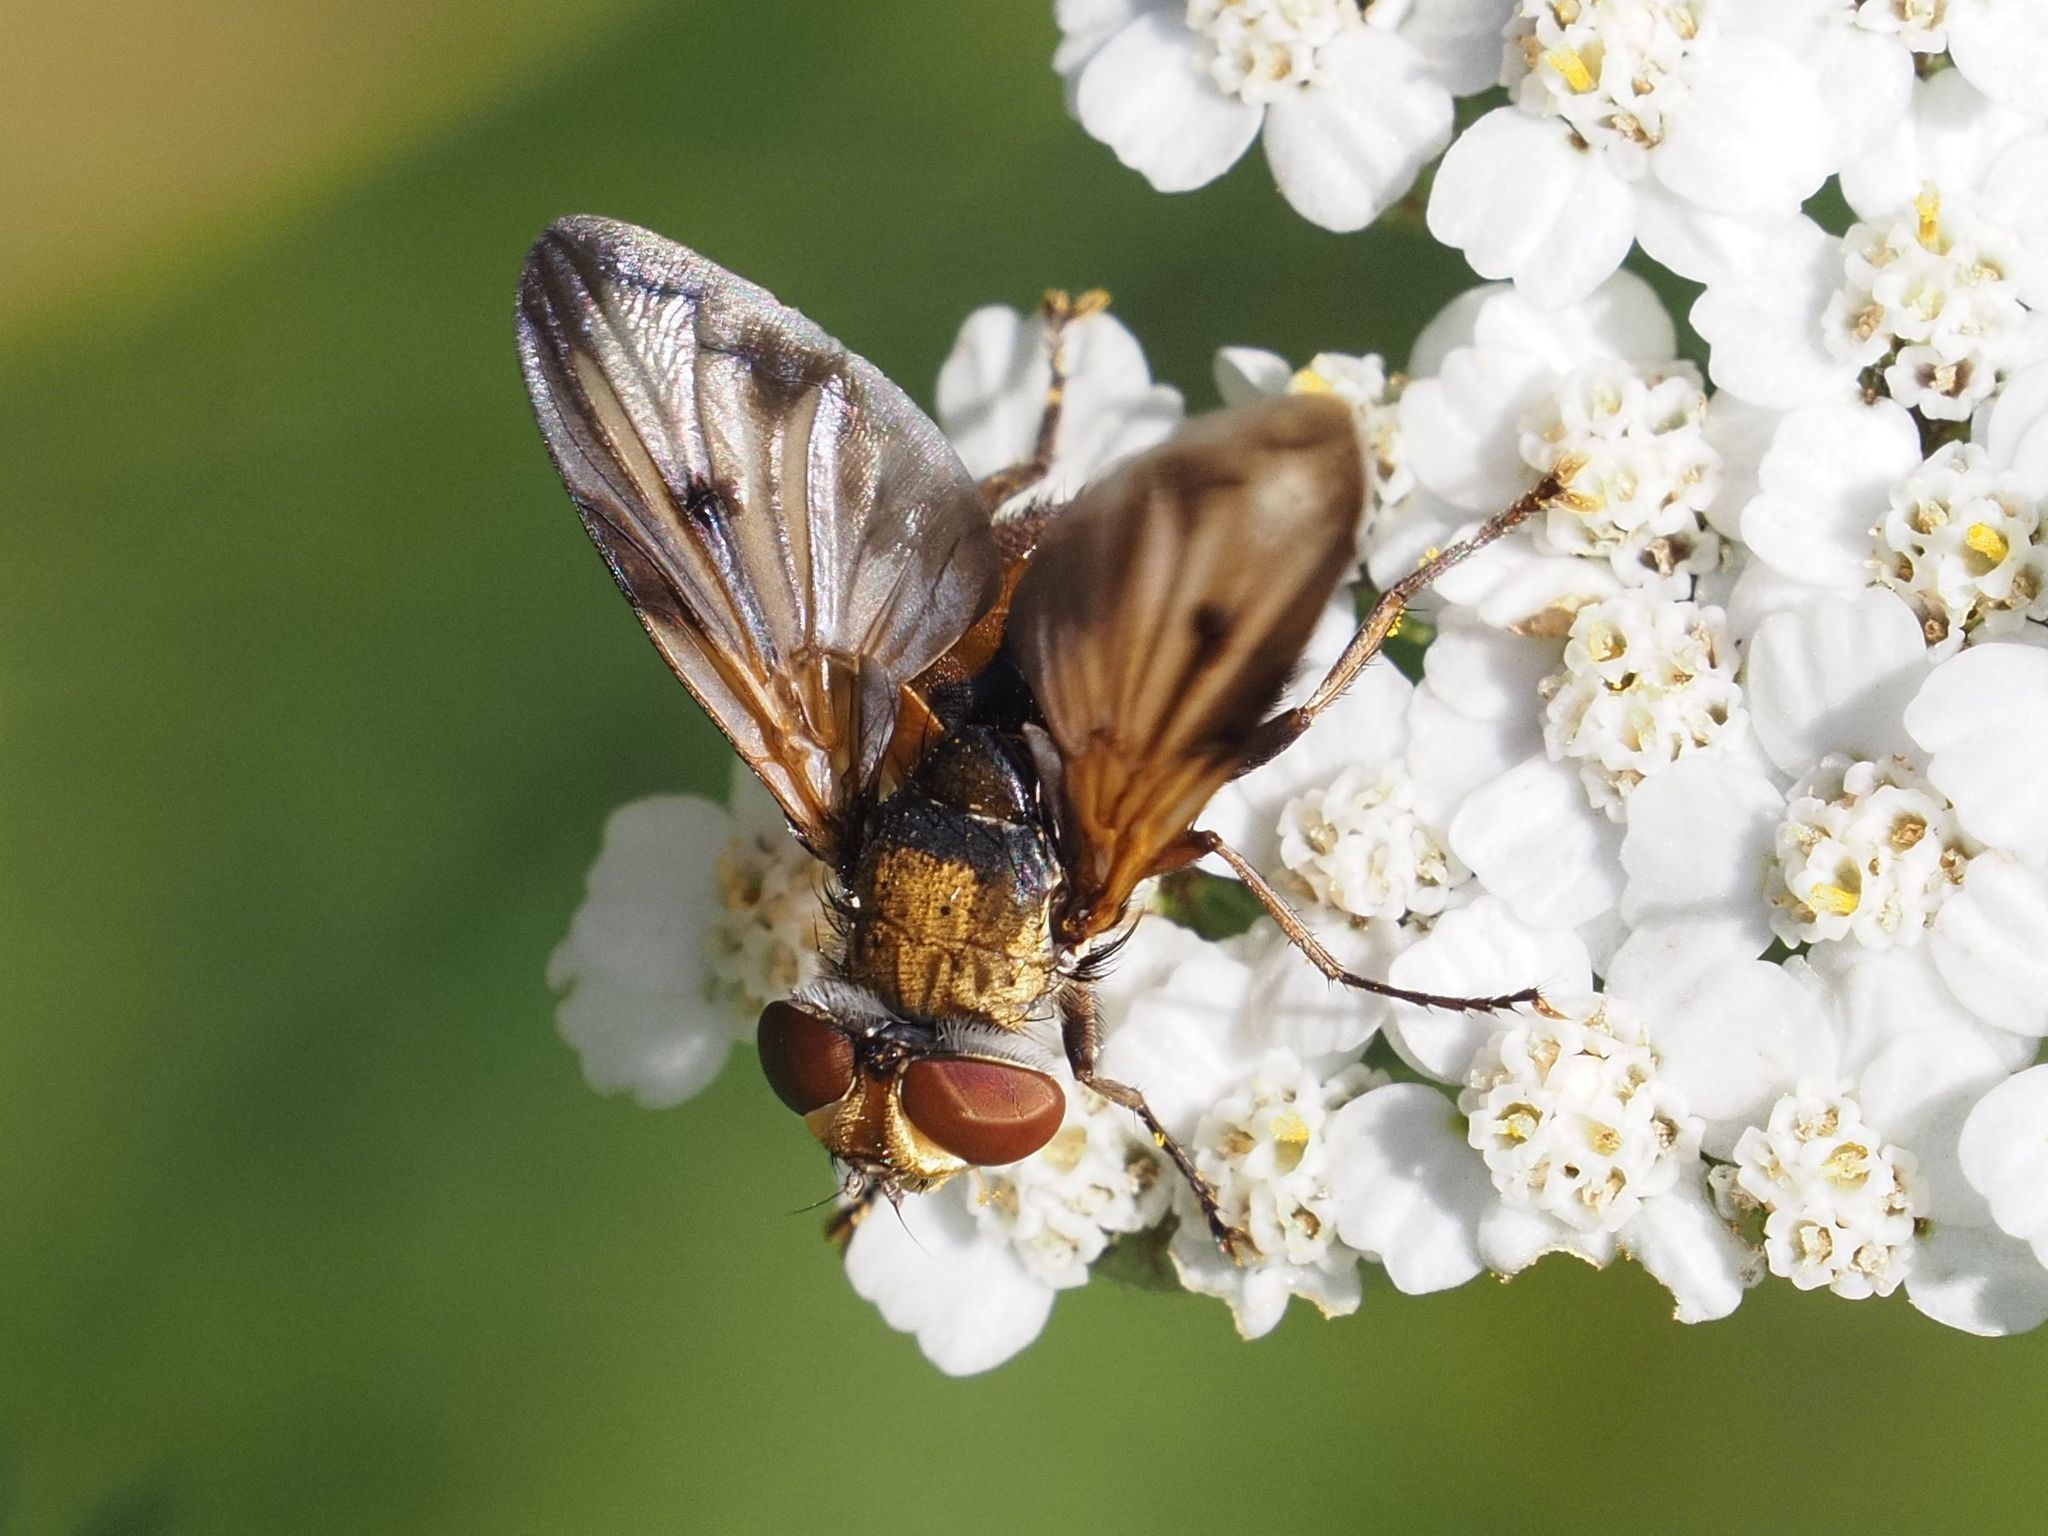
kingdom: Animalia
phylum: Arthropoda
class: Insecta
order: Diptera
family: Tachinidae
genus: Ectophasia
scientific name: Ectophasia crassipennis
